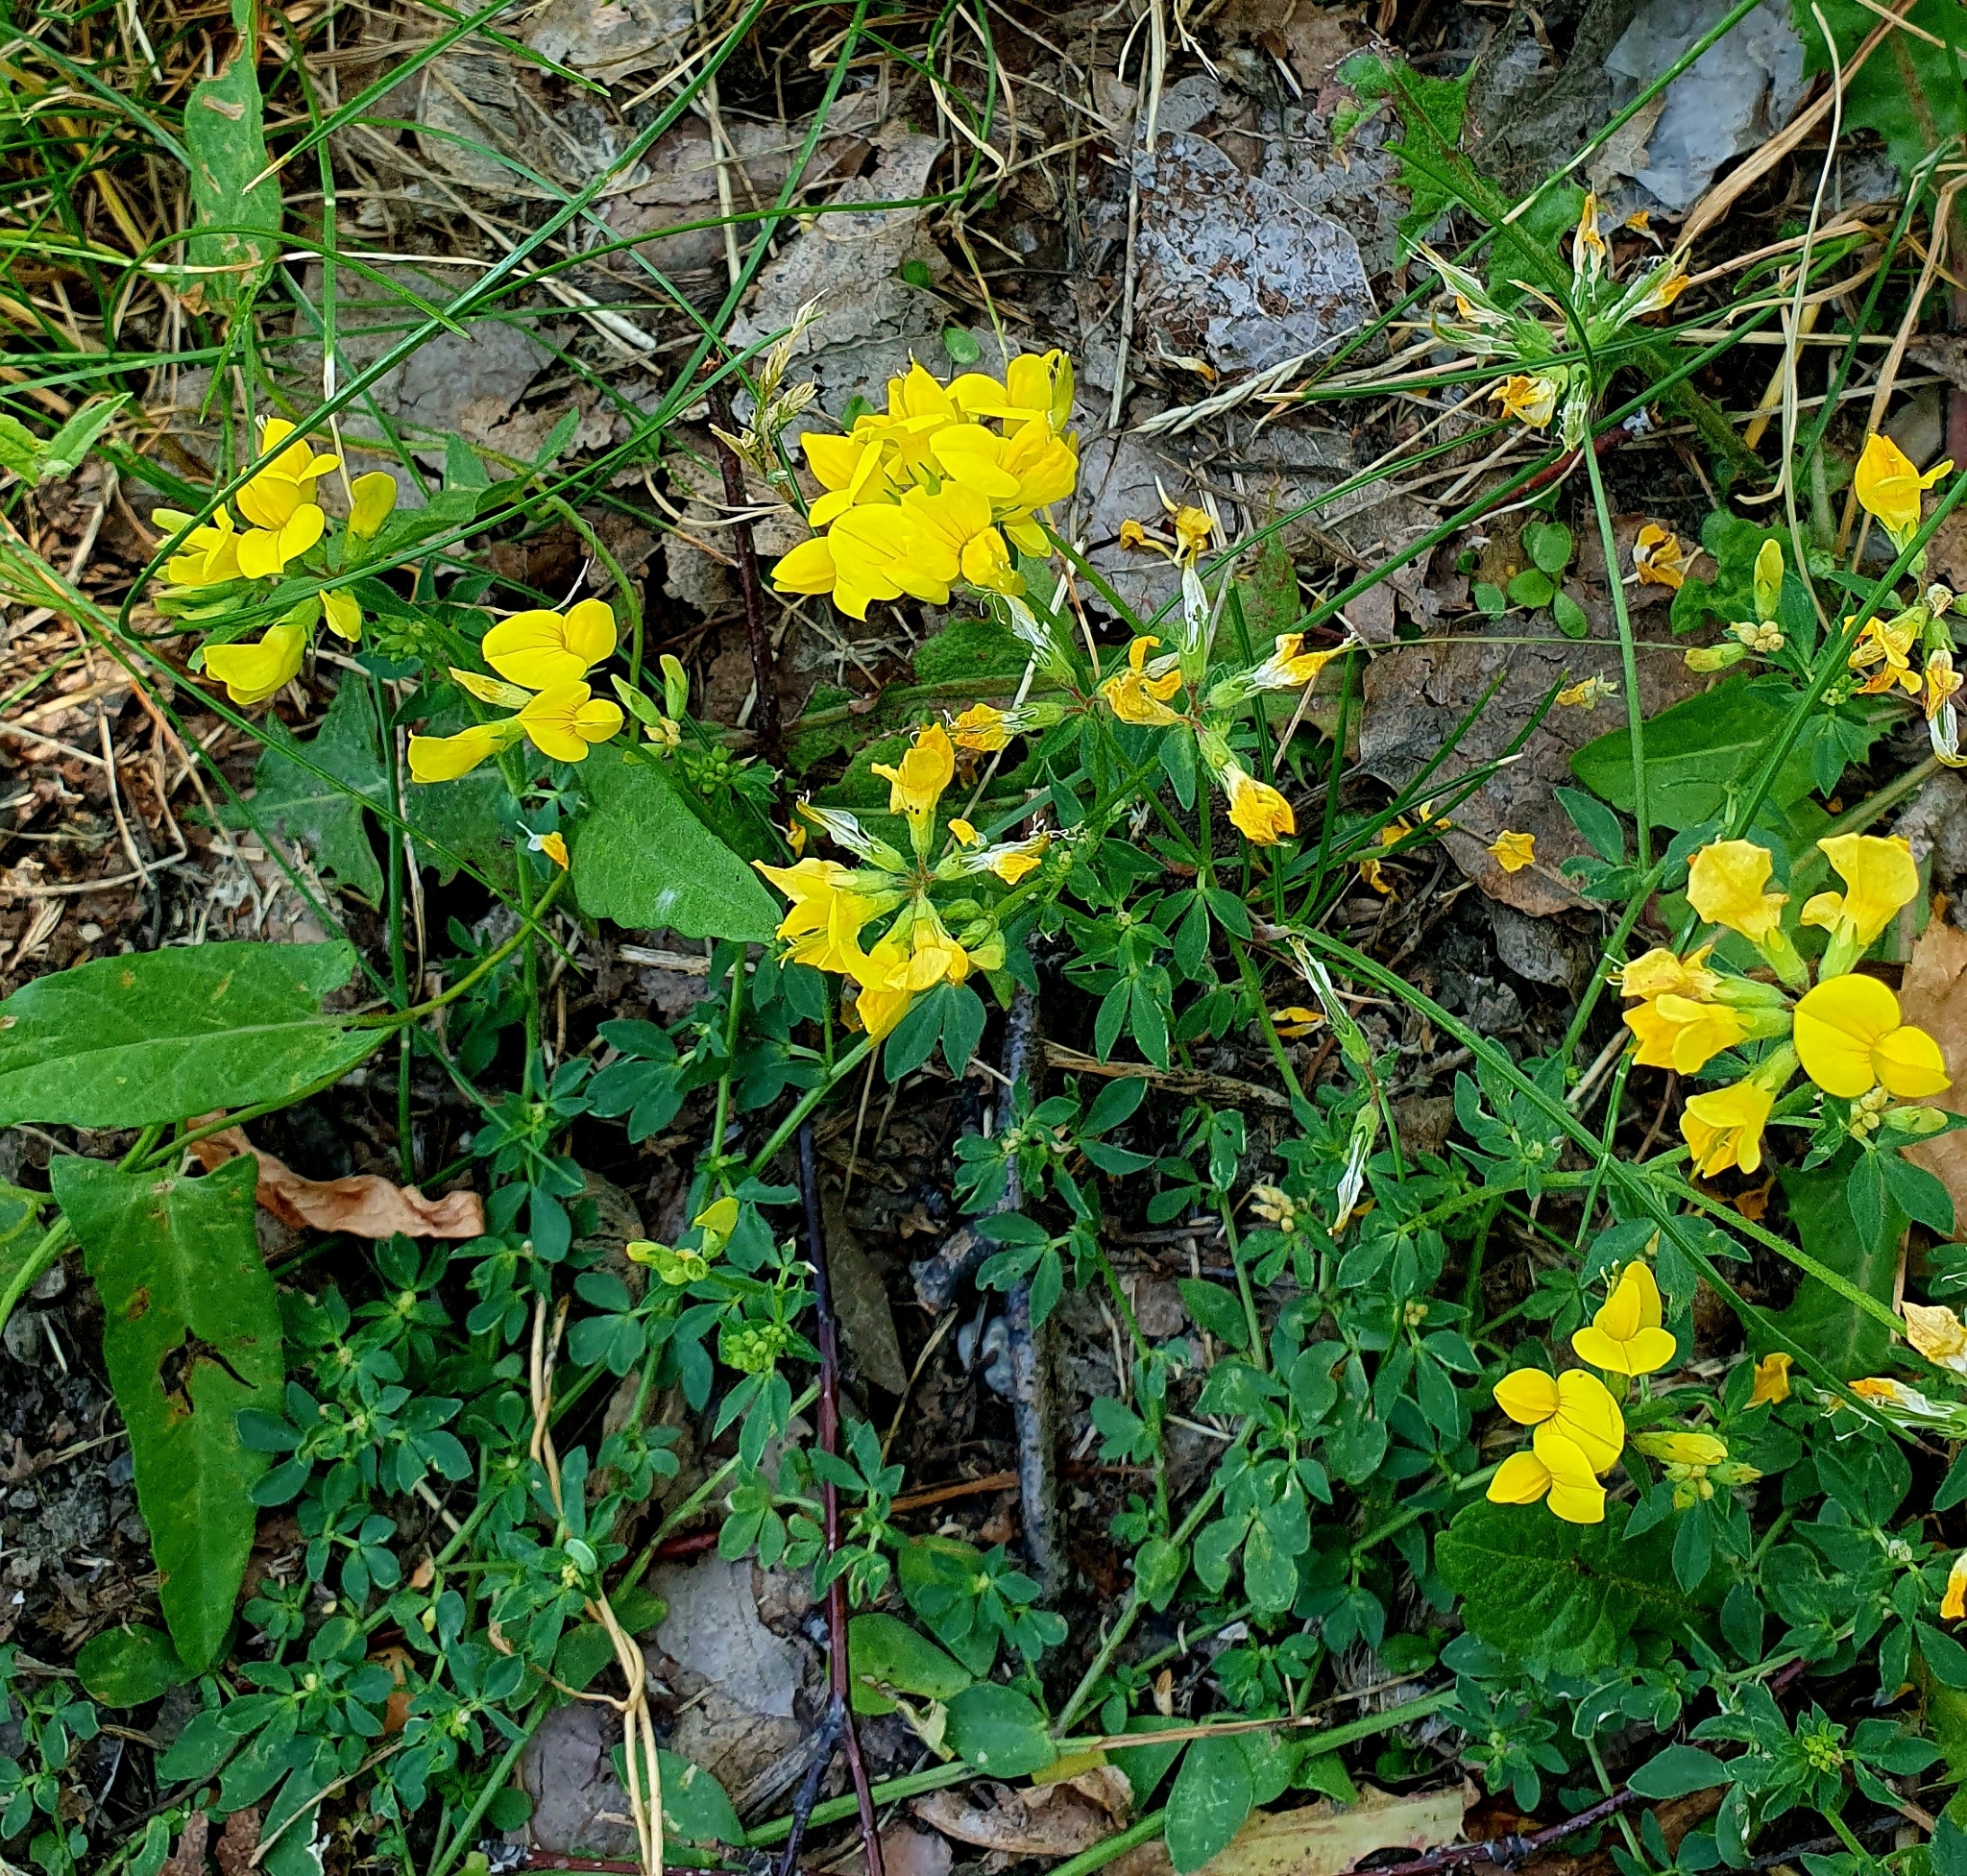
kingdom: Plantae
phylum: Tracheophyta
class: Magnoliopsida
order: Fabales
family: Fabaceae
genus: Lotus
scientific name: Lotus corniculatus
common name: Common bird's-foot-trefoil
